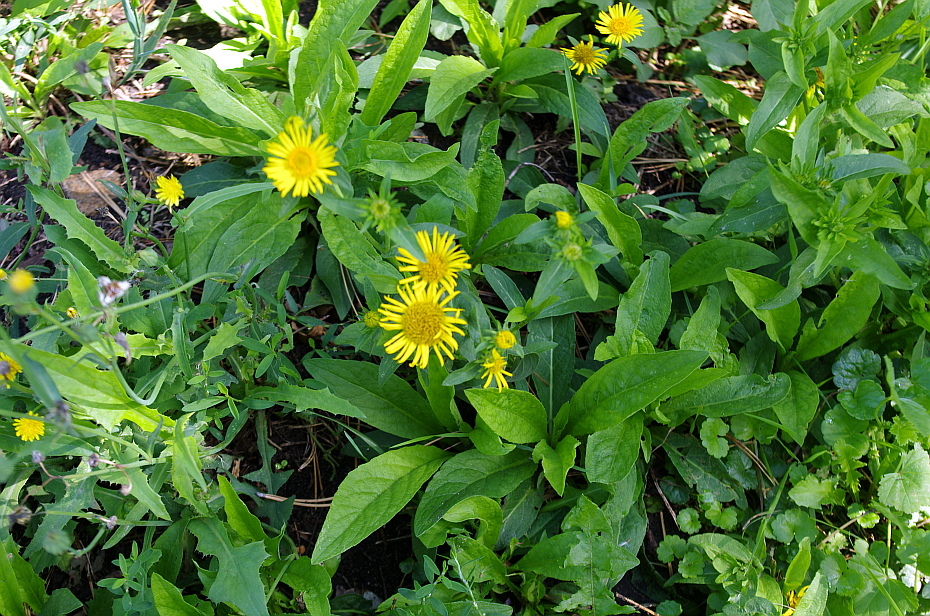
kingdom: Plantae
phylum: Tracheophyta
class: Magnoliopsida
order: Asterales
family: Asteraceae
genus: Pentanema
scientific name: Pentanema britannicum
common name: British elecampane
